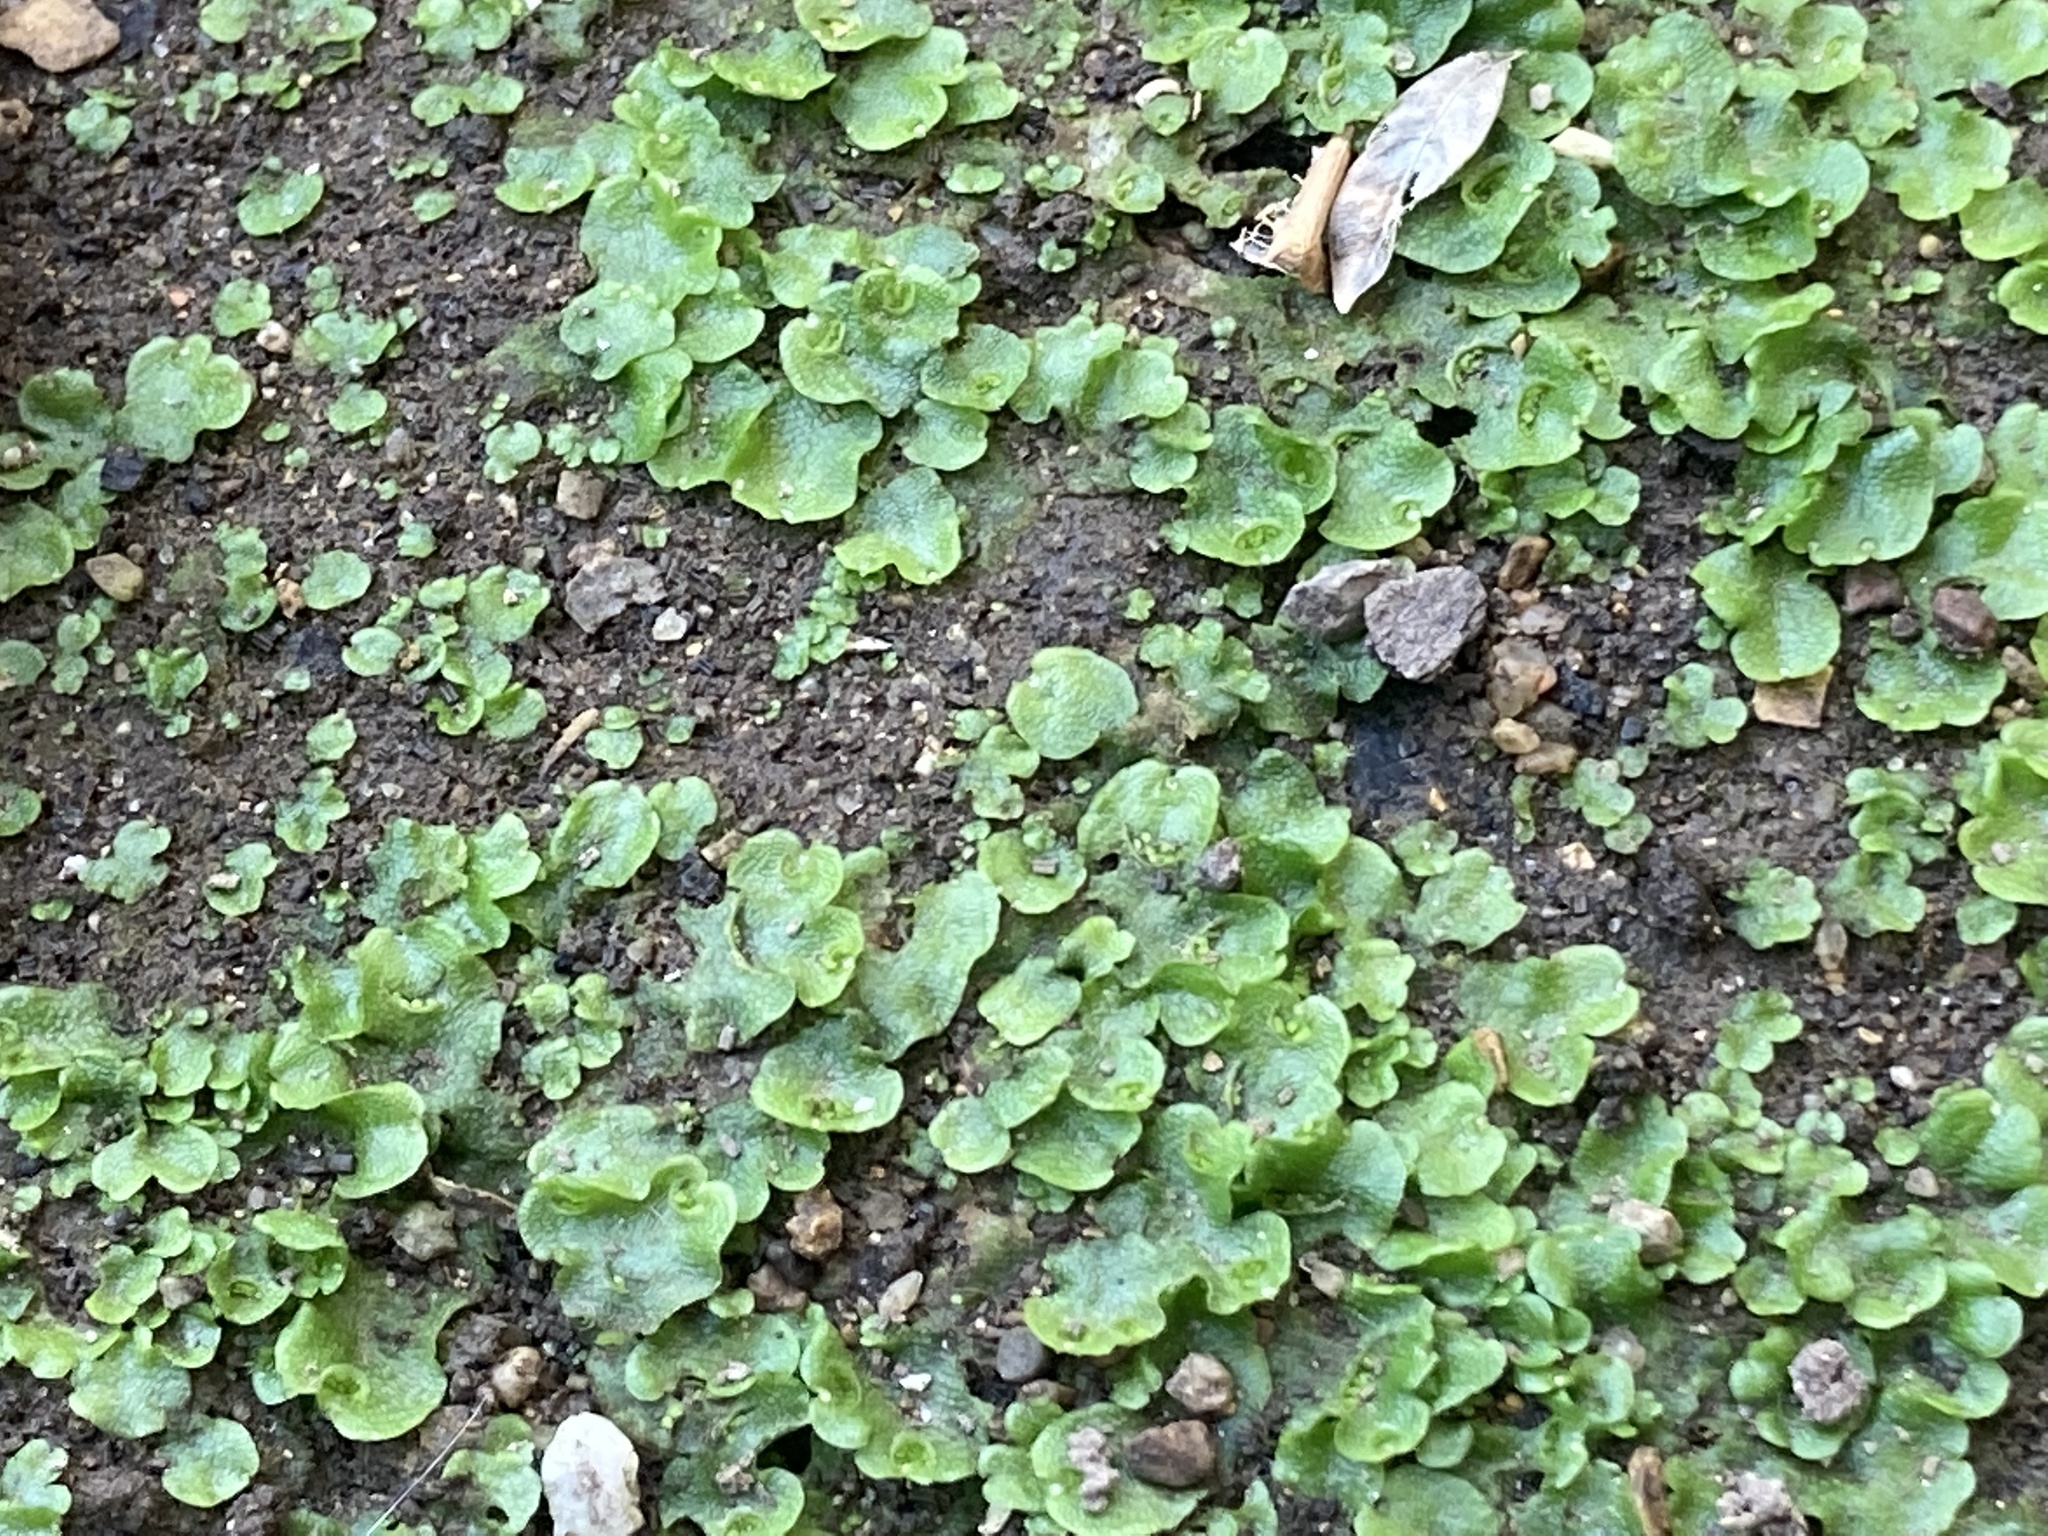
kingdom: Plantae
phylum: Marchantiophyta
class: Marchantiopsida
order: Lunulariales
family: Lunulariaceae
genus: Lunularia
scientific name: Lunularia cruciata
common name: Crescent-cup liverwort
